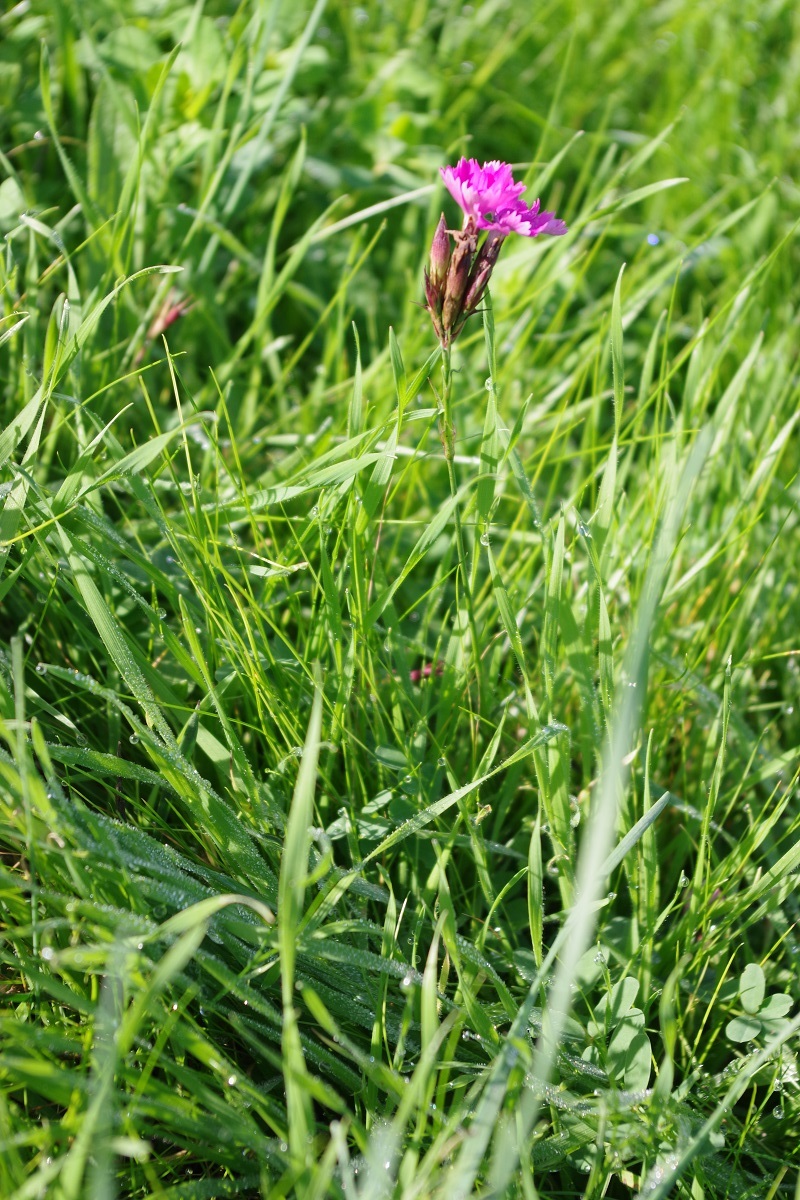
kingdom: Plantae
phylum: Tracheophyta
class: Magnoliopsida
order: Caryophyllales
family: Caryophyllaceae
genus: Dianthus
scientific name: Dianthus carthusianorum
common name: Carthusian pink
